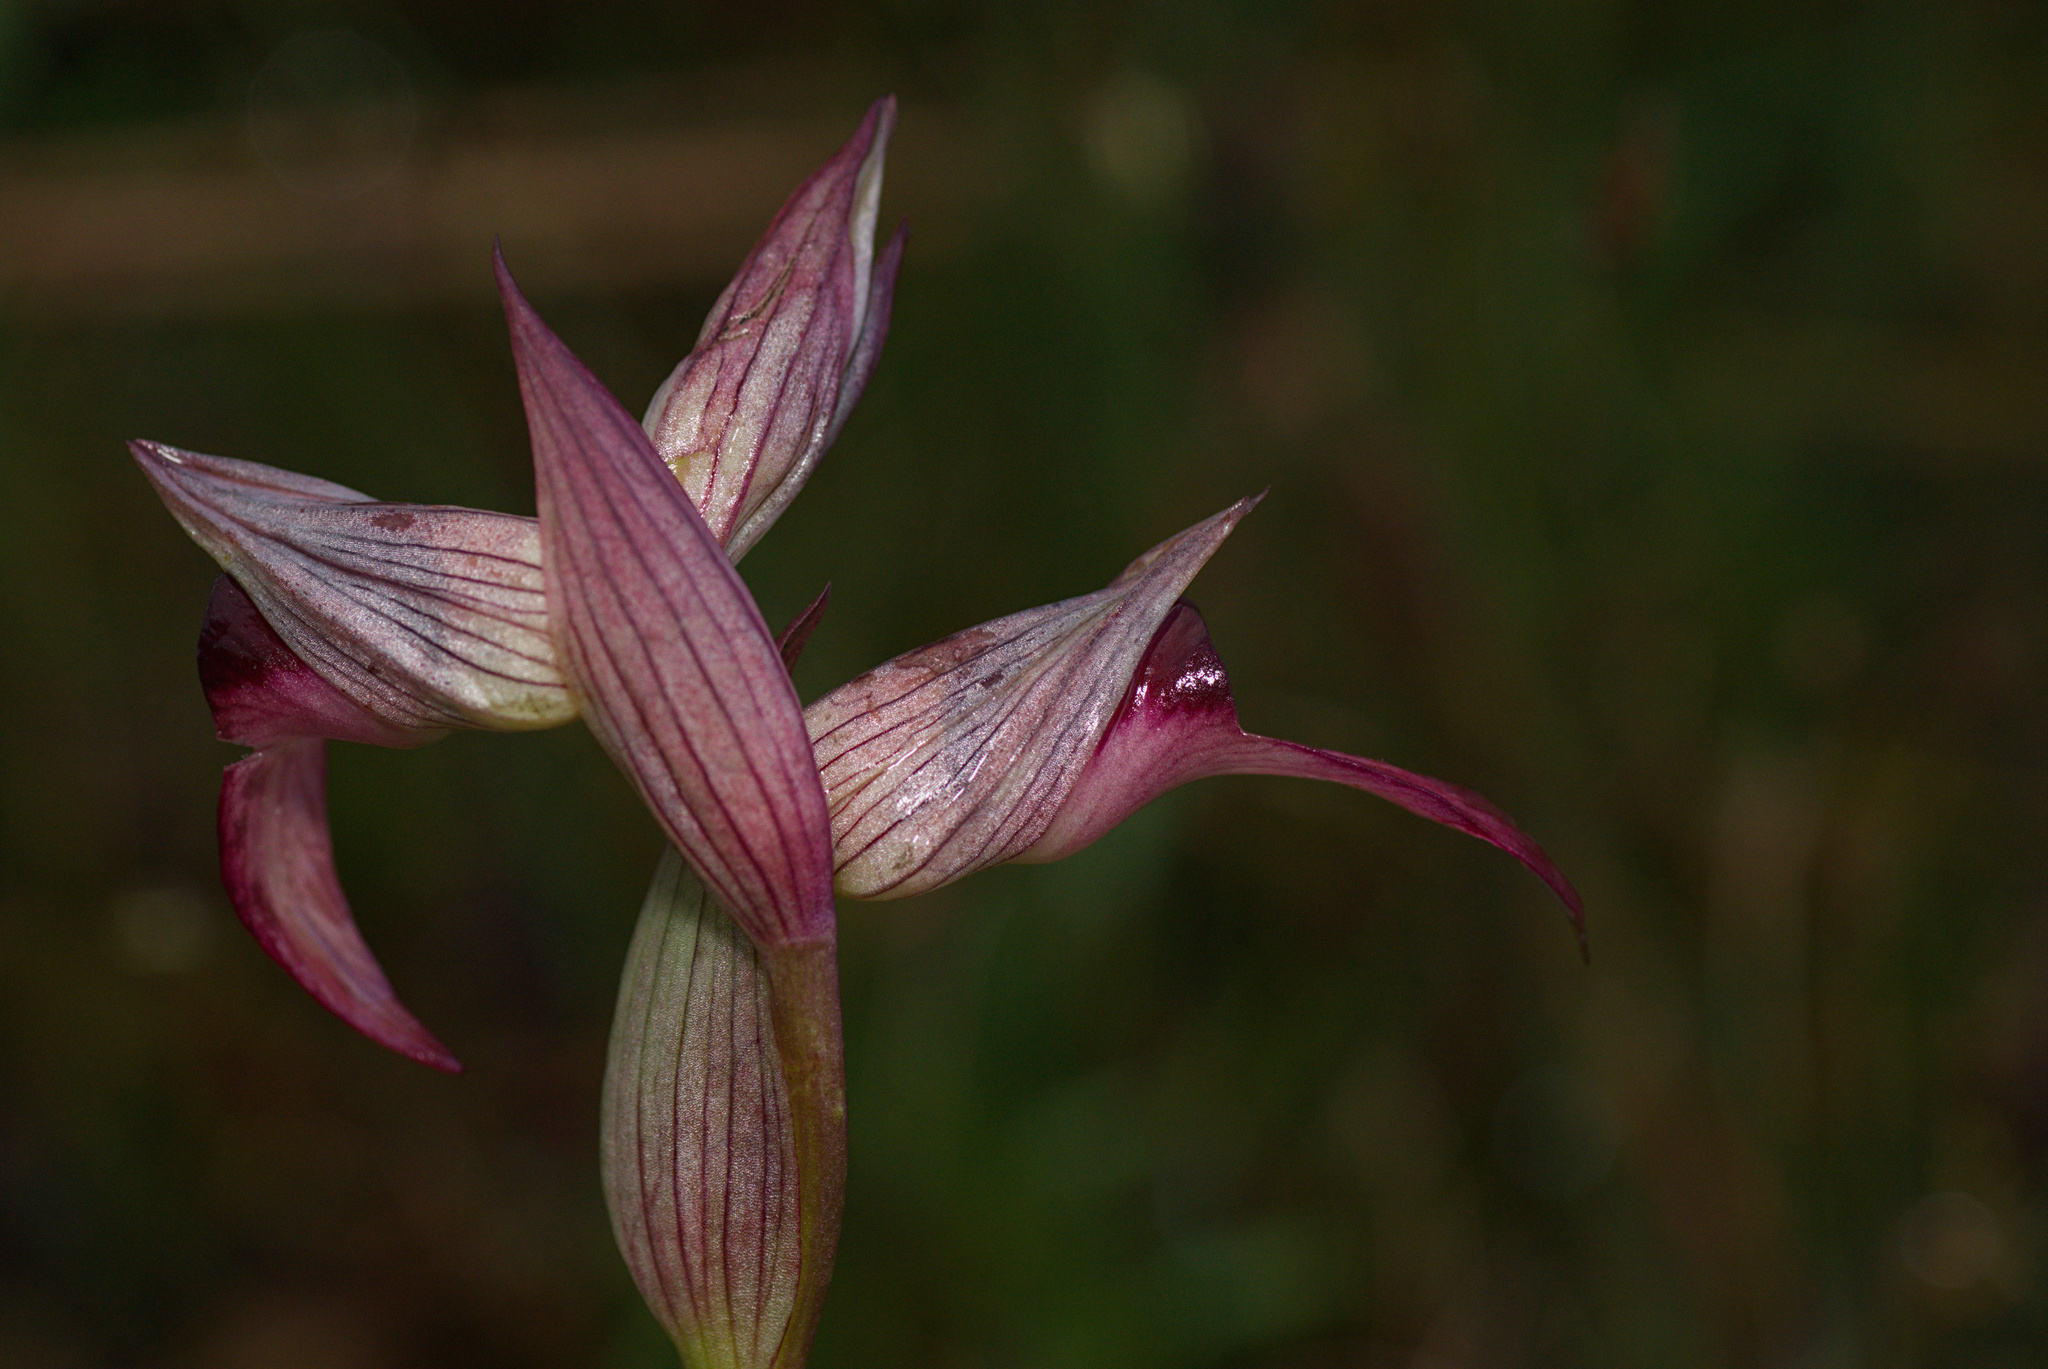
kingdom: Plantae
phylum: Tracheophyta
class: Liliopsida
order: Asparagales
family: Orchidaceae
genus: Serapias
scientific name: Serapias lingua
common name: Tongue-orchid
